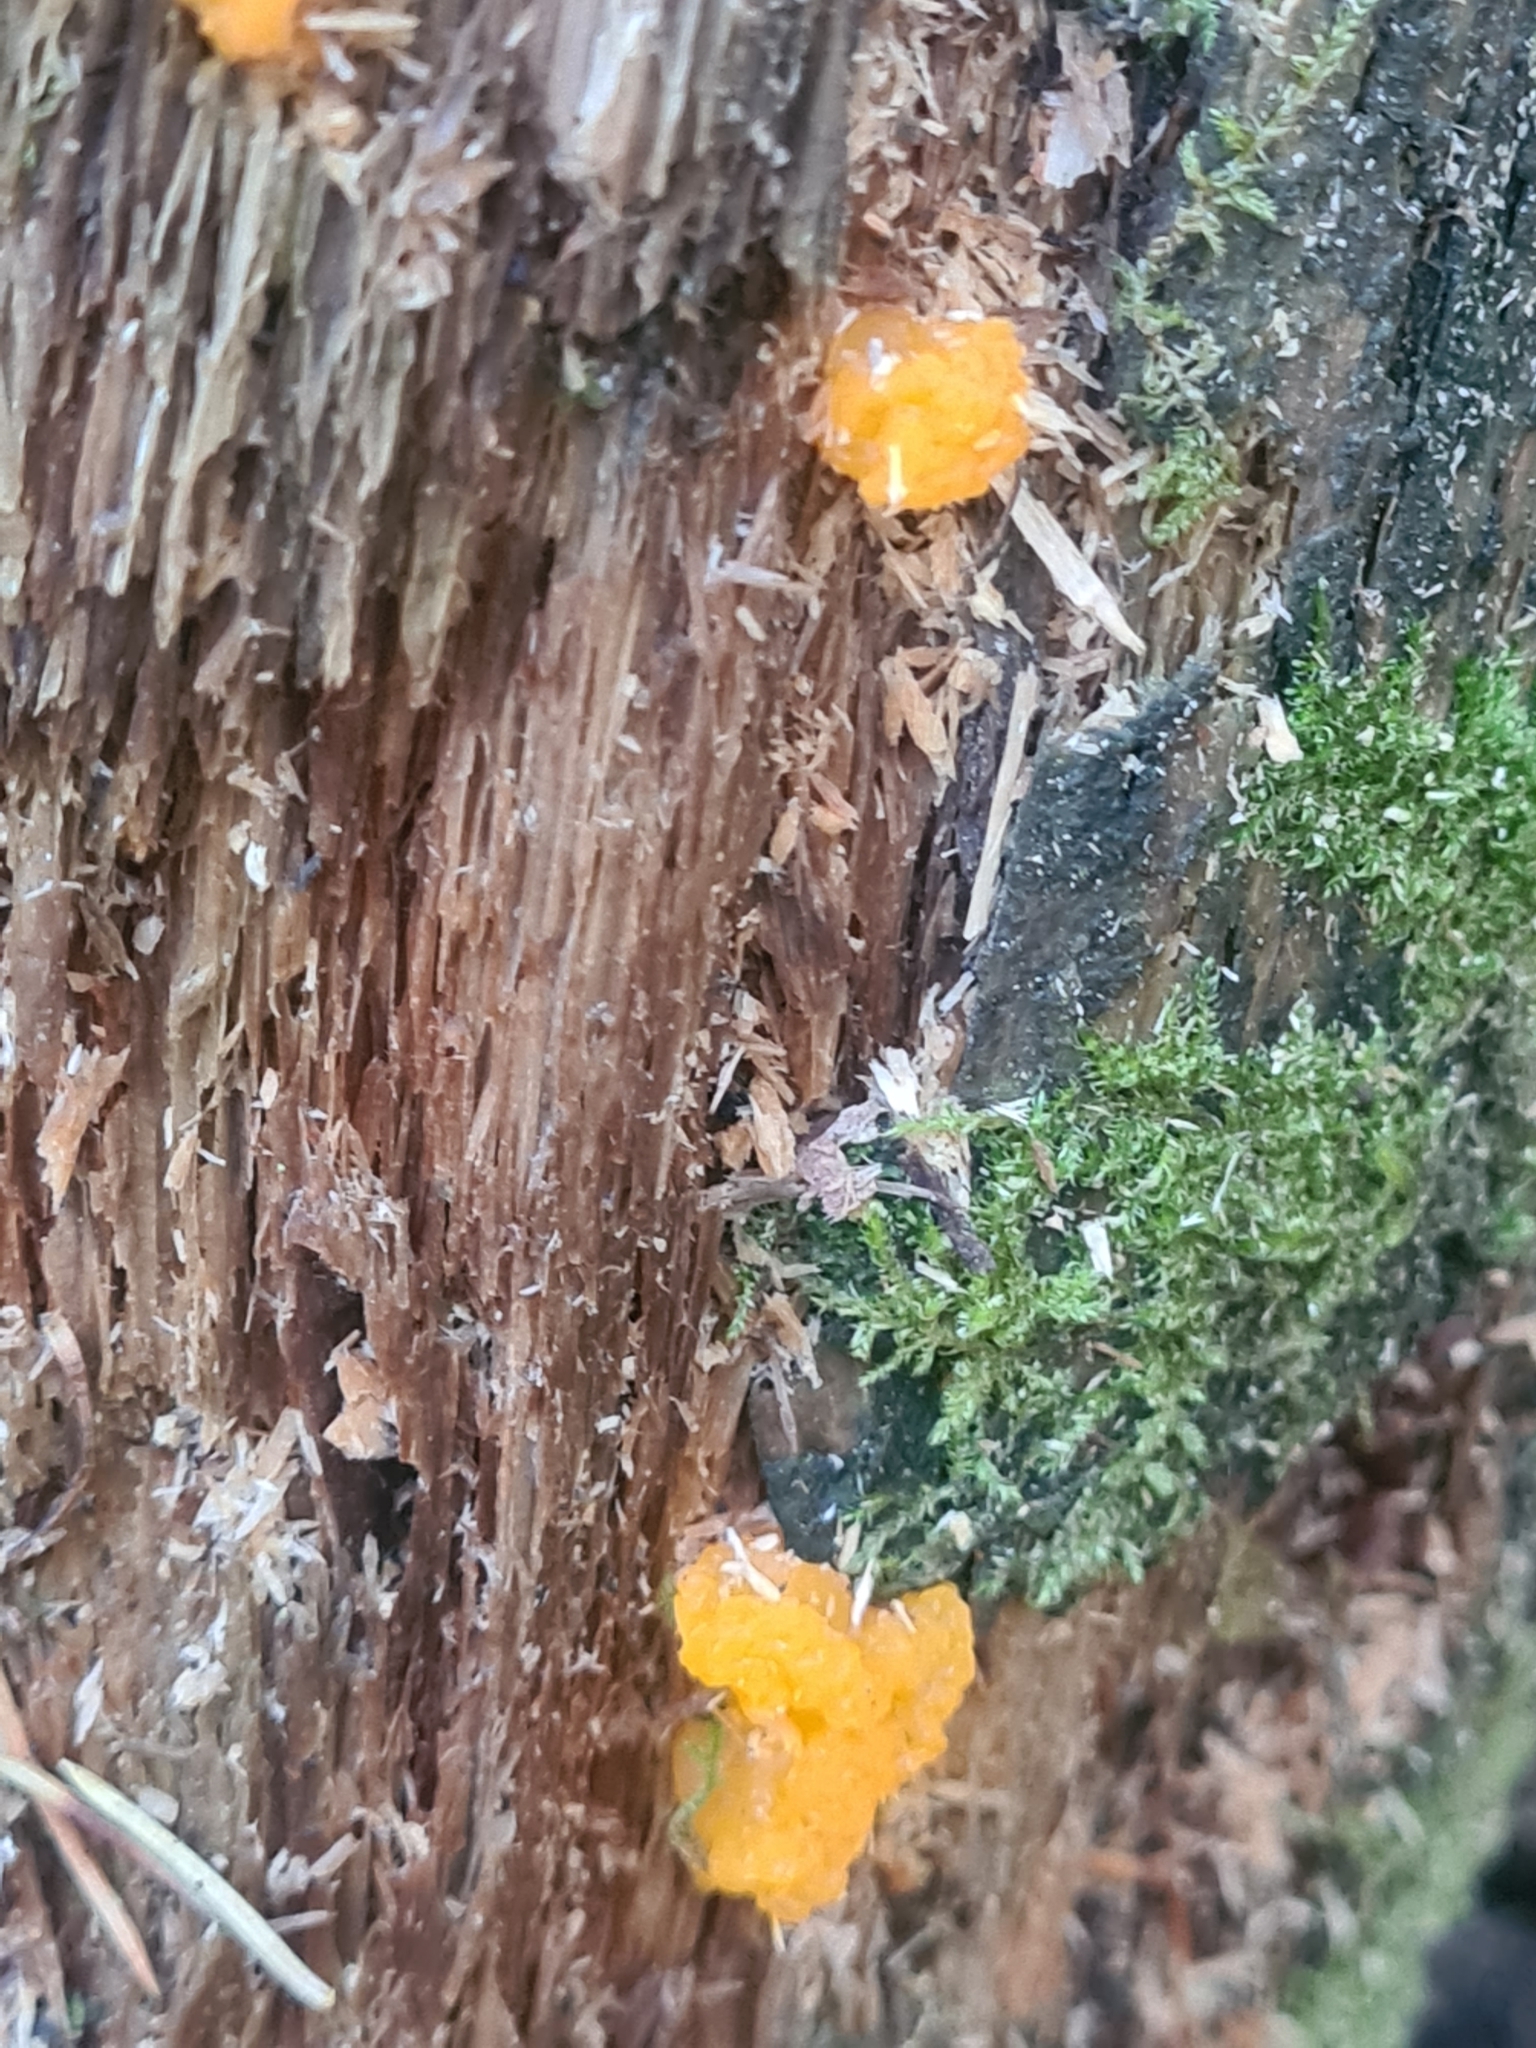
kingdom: Fungi
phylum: Basidiomycota
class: Dacrymycetes
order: Dacrymycetales
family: Dacrymycetaceae
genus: Dacrymyces
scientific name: Dacrymyces chrysospermus
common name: Orange jelly spot
